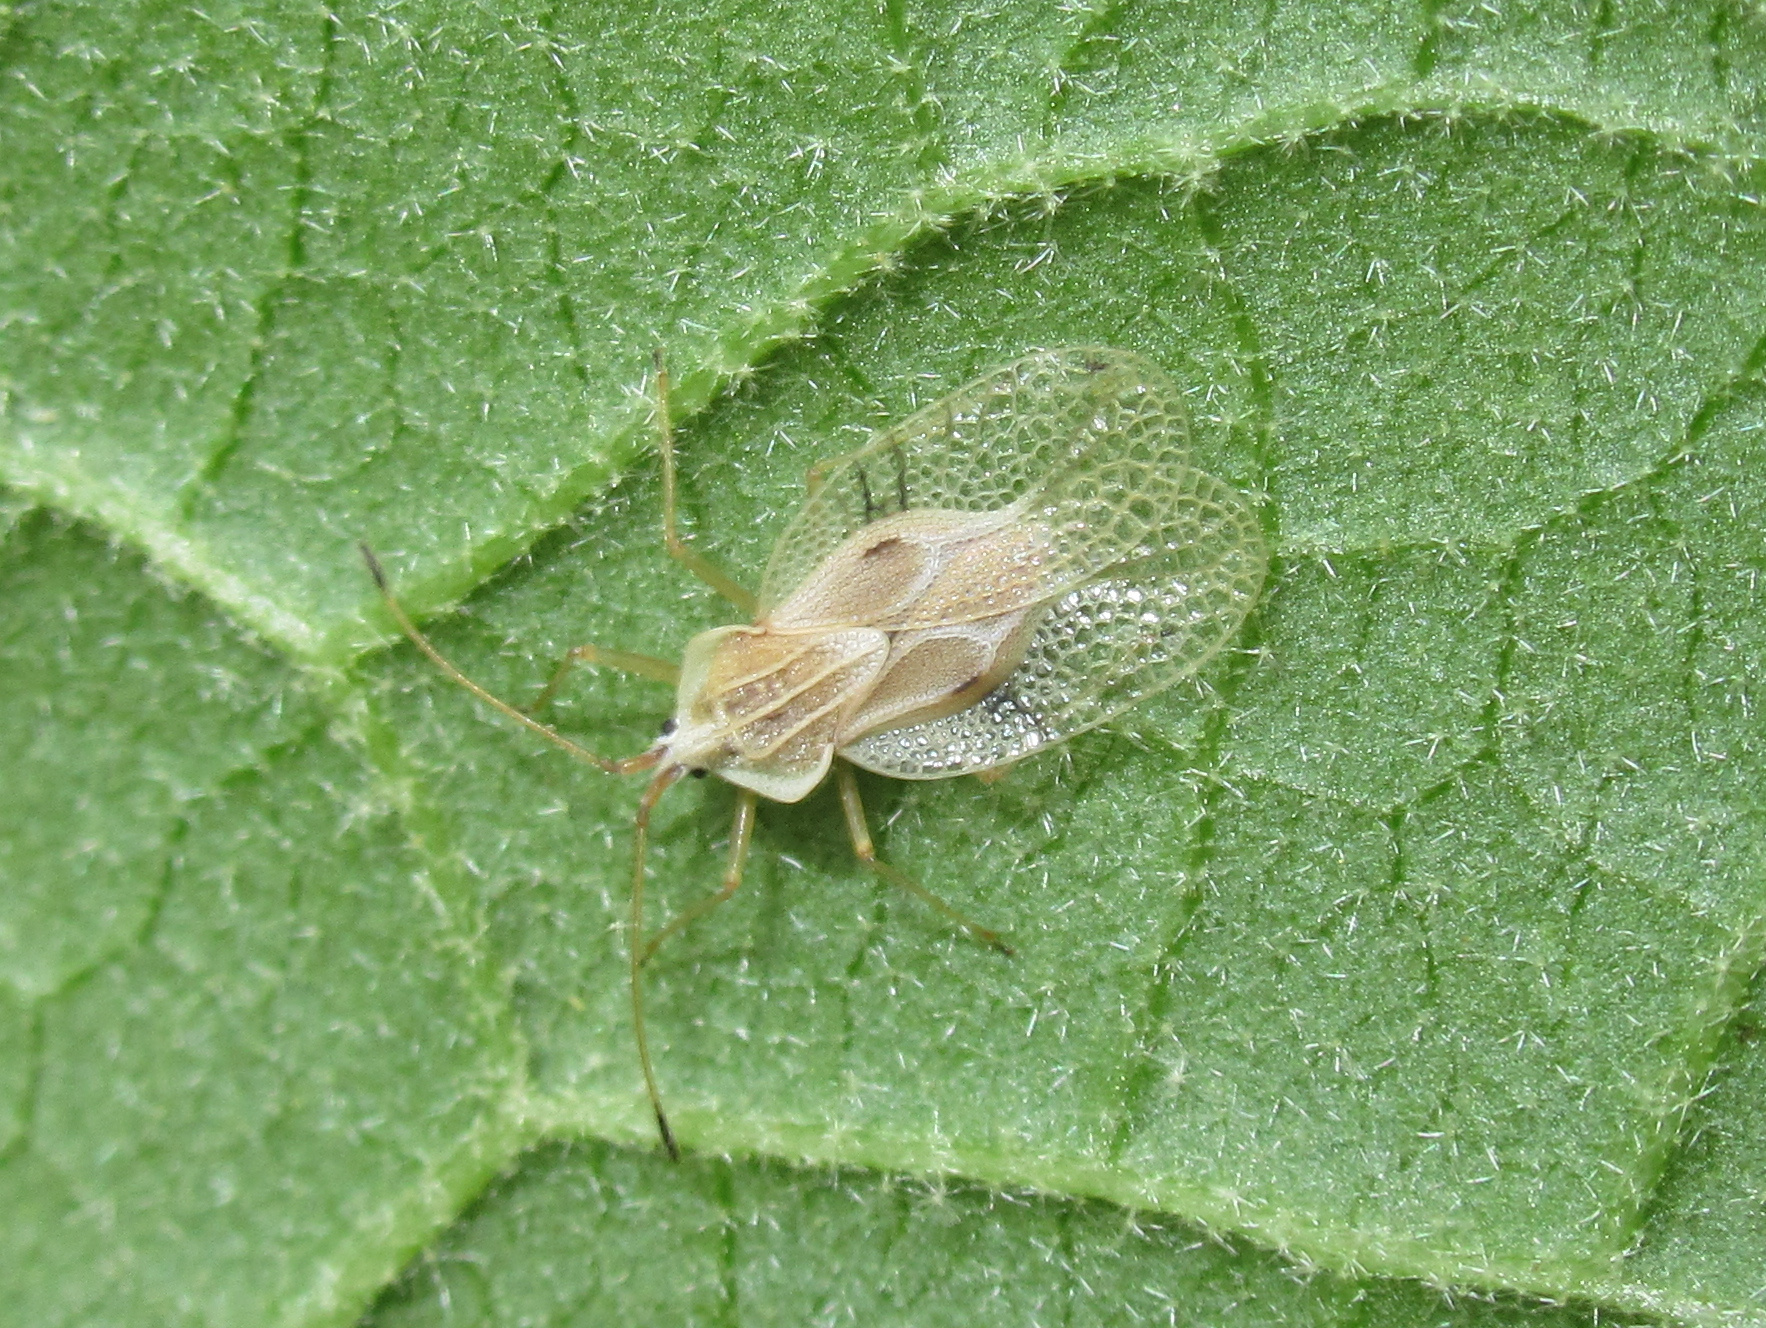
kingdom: Animalia
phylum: Arthropoda
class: Insecta
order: Hemiptera
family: Tingidae
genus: Gargaphia
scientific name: Gargaphia decoris
